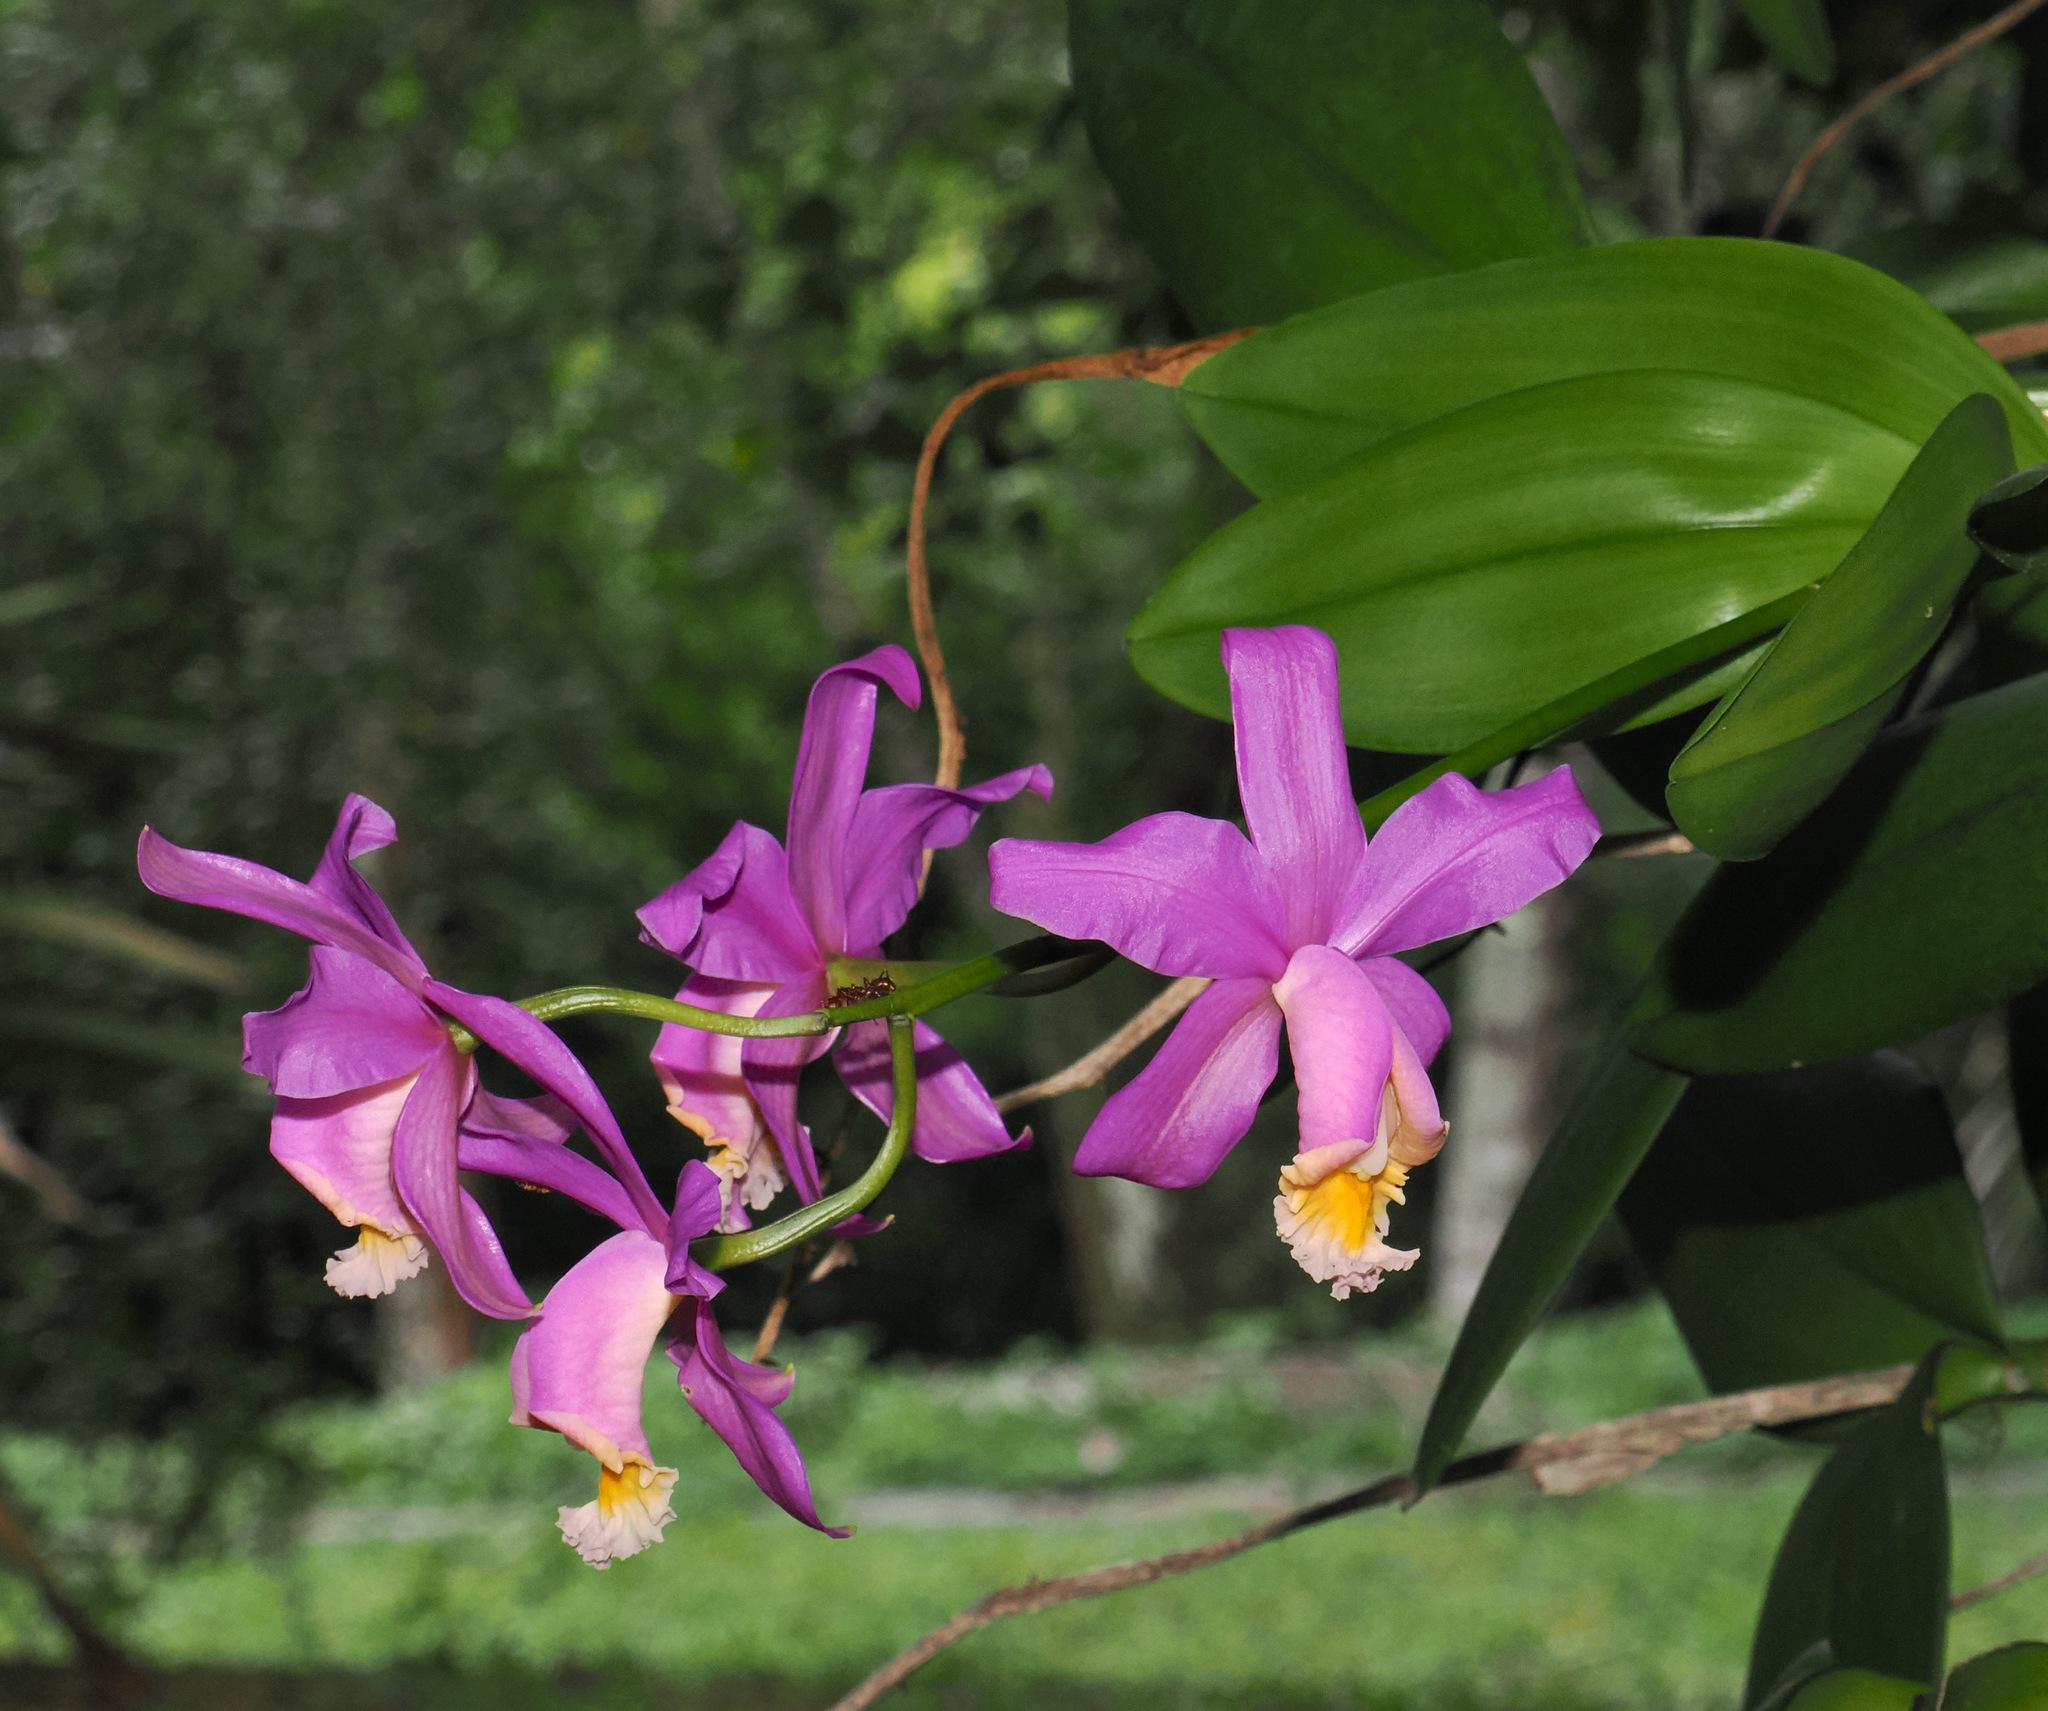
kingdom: Plantae
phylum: Tracheophyta
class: Liliopsida
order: Asparagales
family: Orchidaceae
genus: Cattleya
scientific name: Cattleya harrisoniana
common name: Harrison's cattleya
